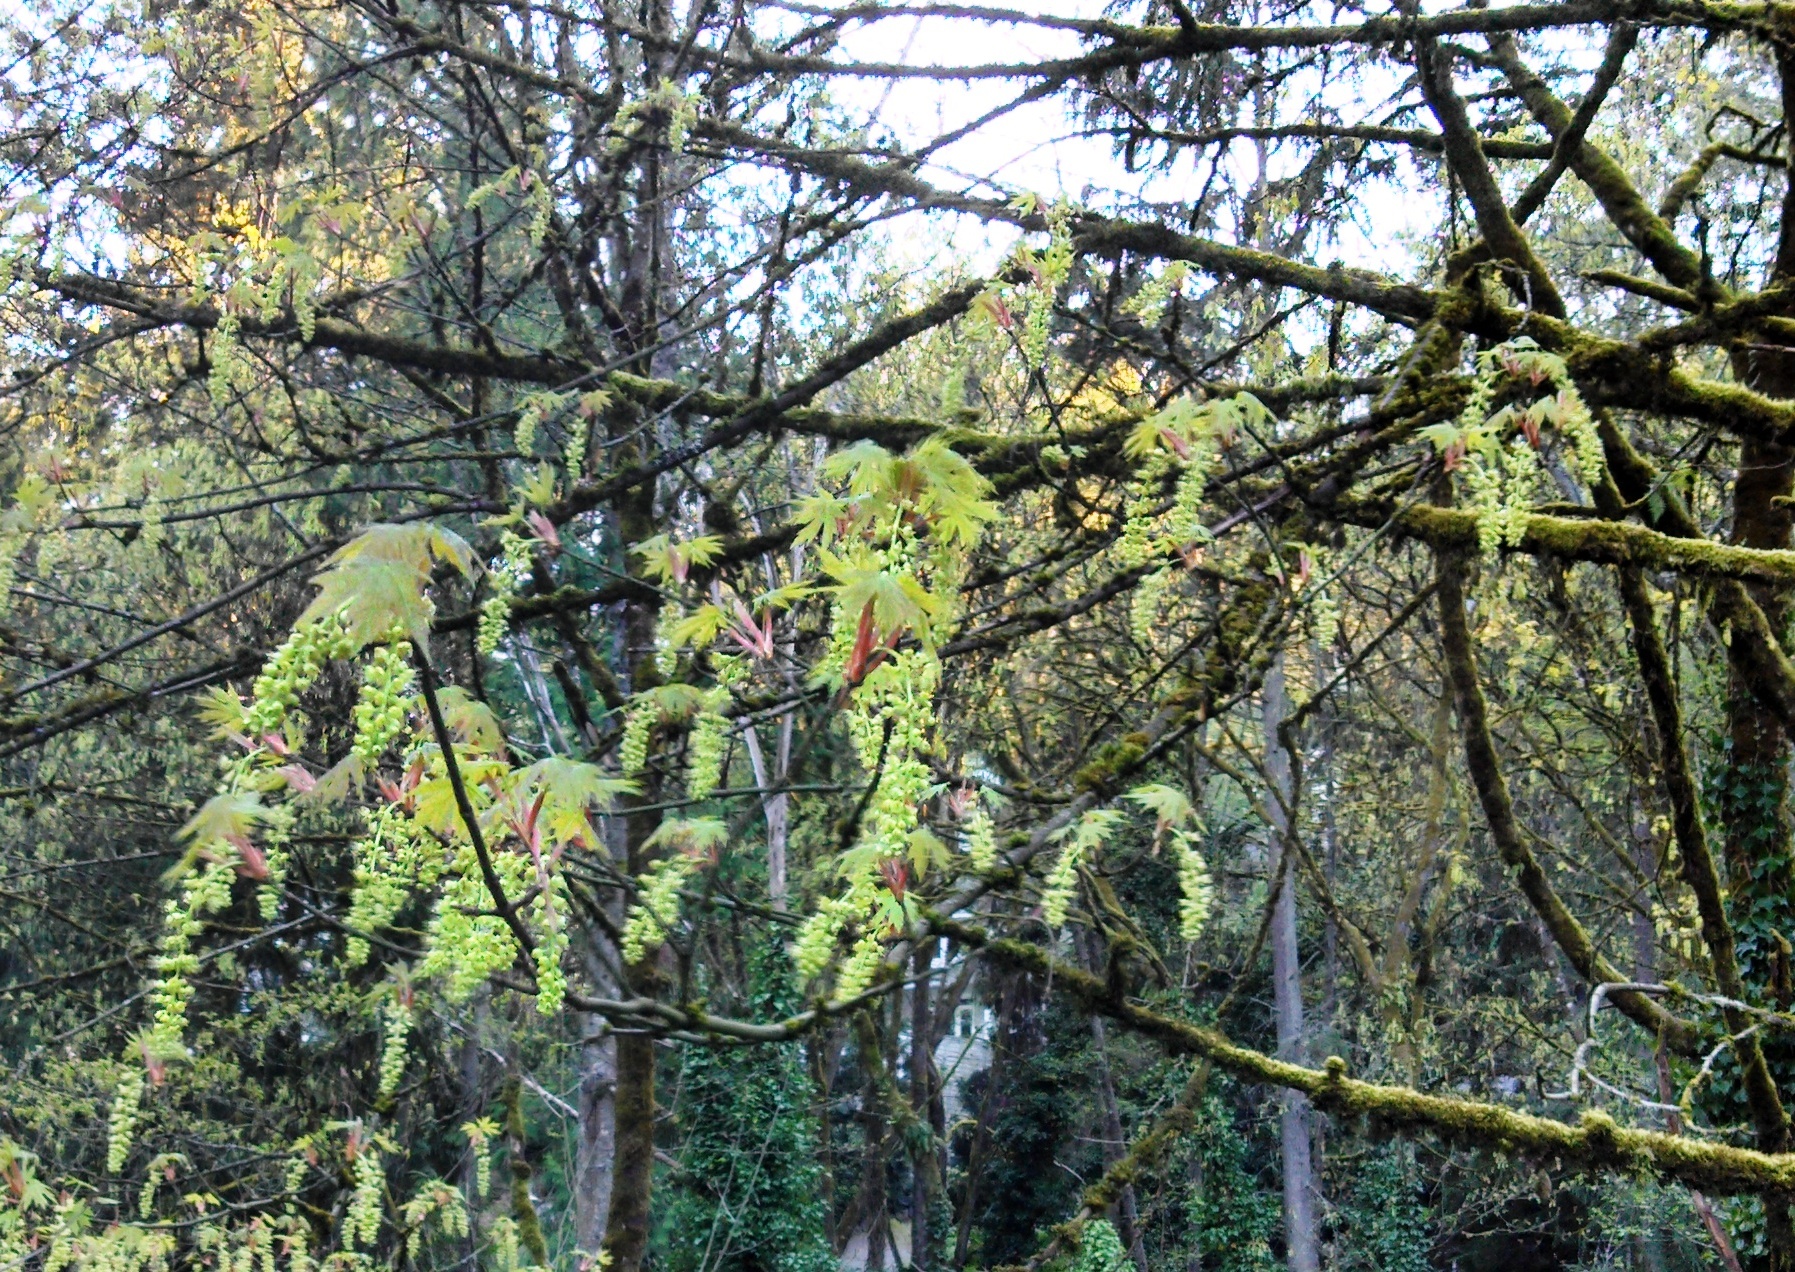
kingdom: Plantae
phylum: Tracheophyta
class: Magnoliopsida
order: Sapindales
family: Sapindaceae
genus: Acer
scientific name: Acer macrophyllum
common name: Oregon maple
